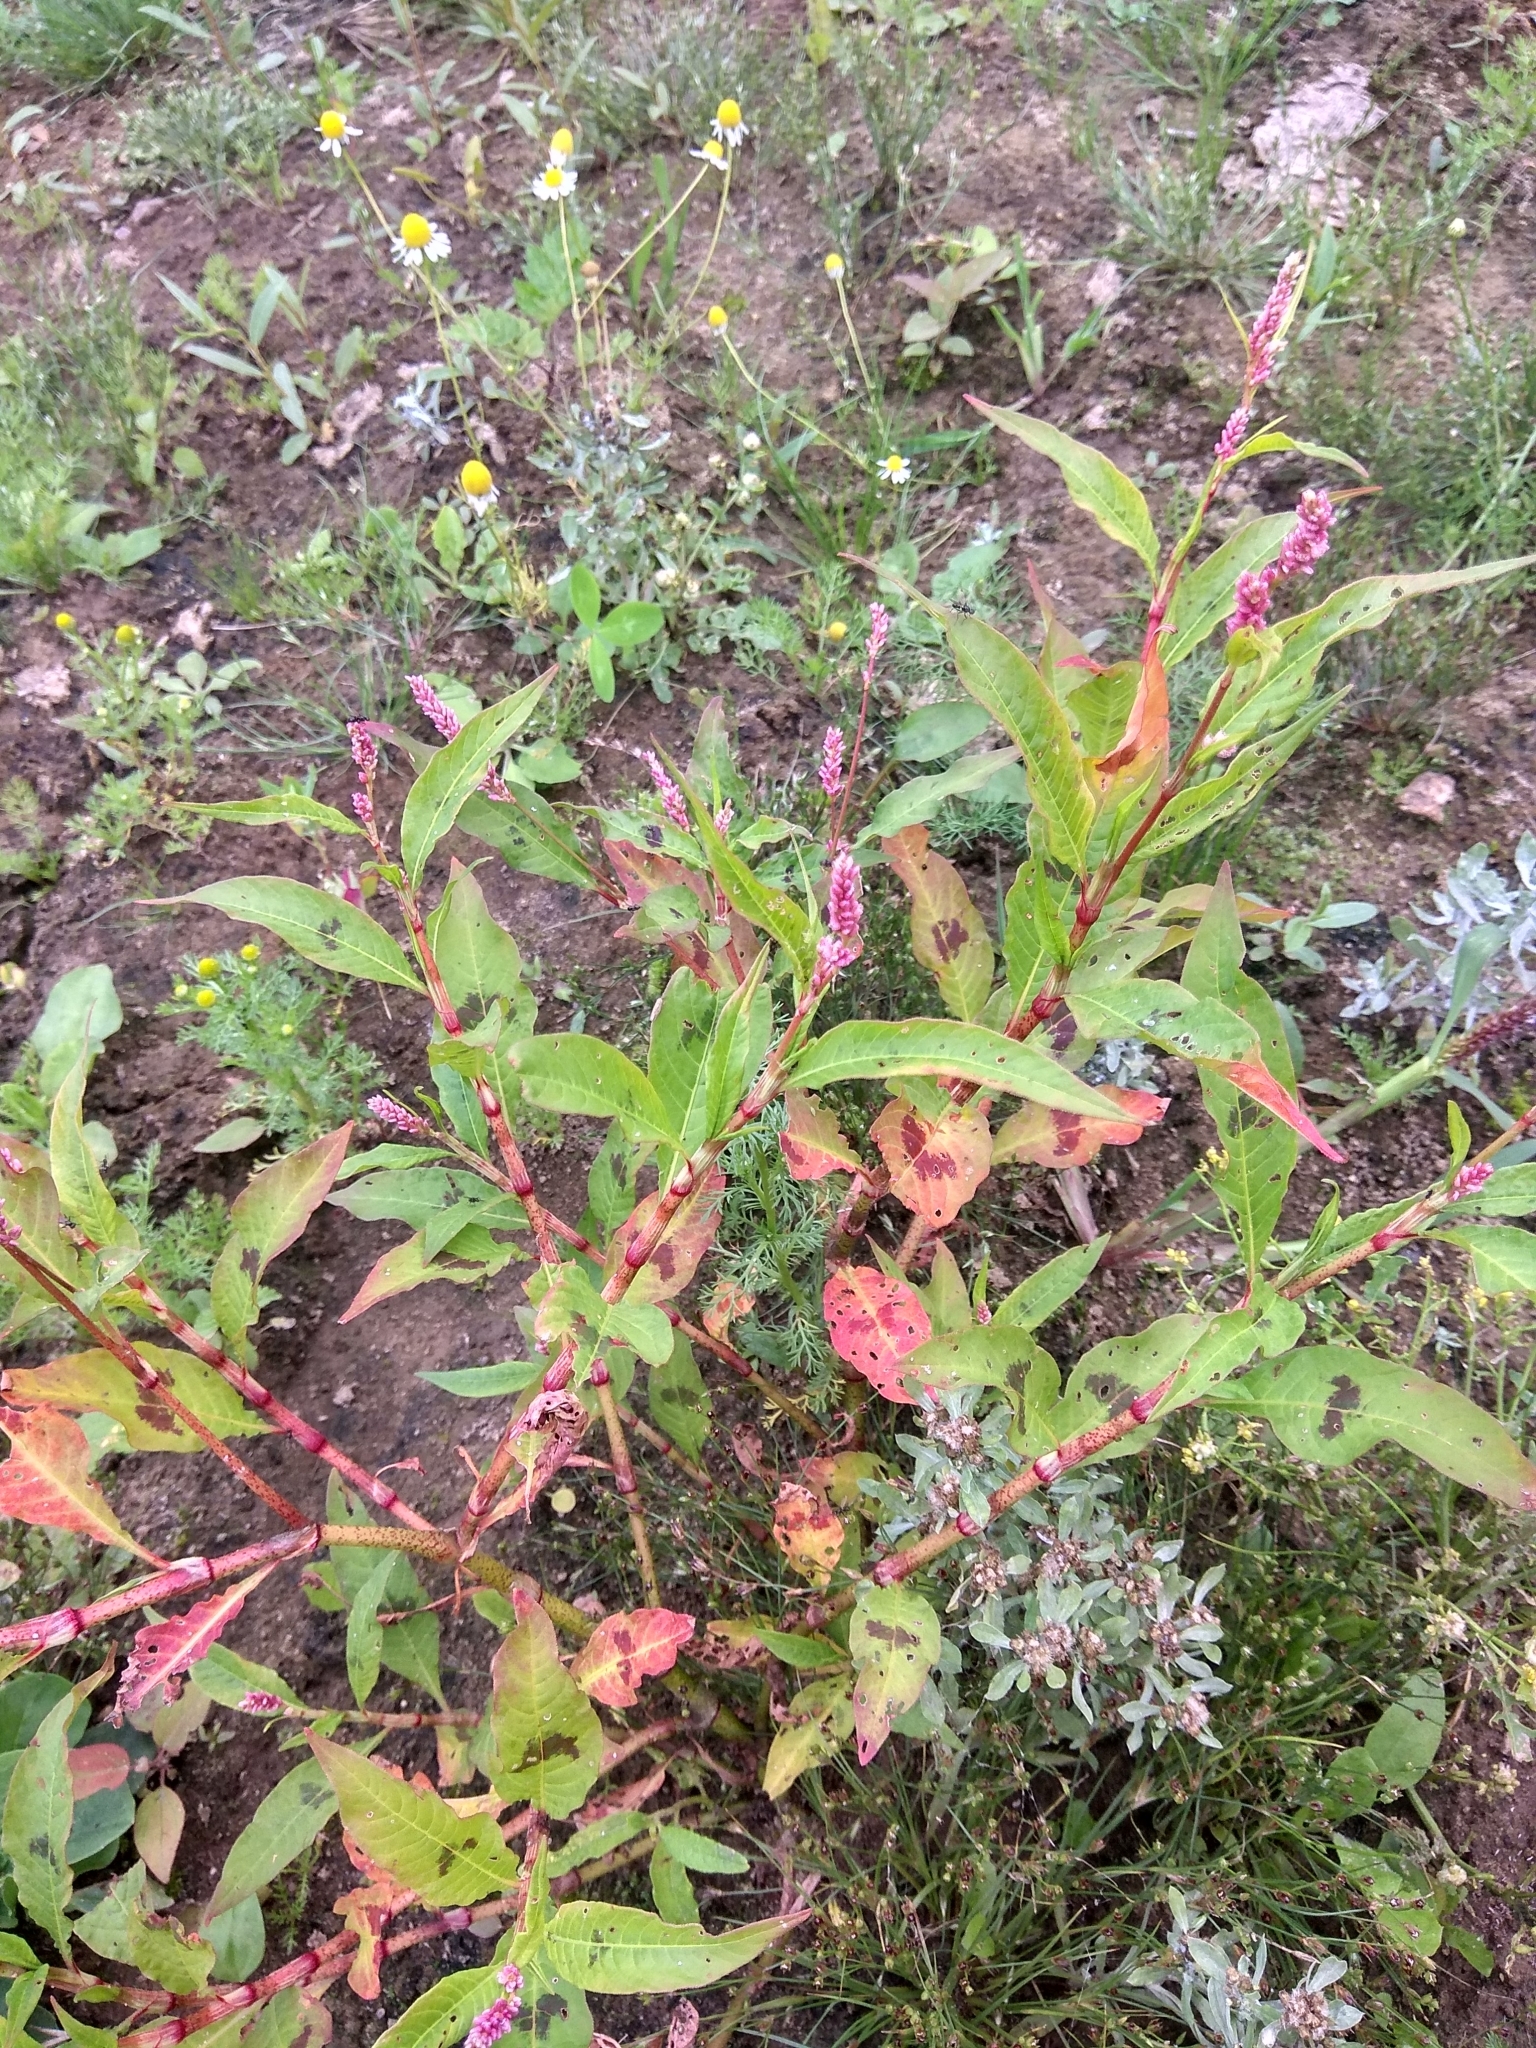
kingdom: Plantae
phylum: Tracheophyta
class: Magnoliopsida
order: Caryophyllales
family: Polygonaceae
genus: Persicaria
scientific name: Persicaria maculosa
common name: Redshank
